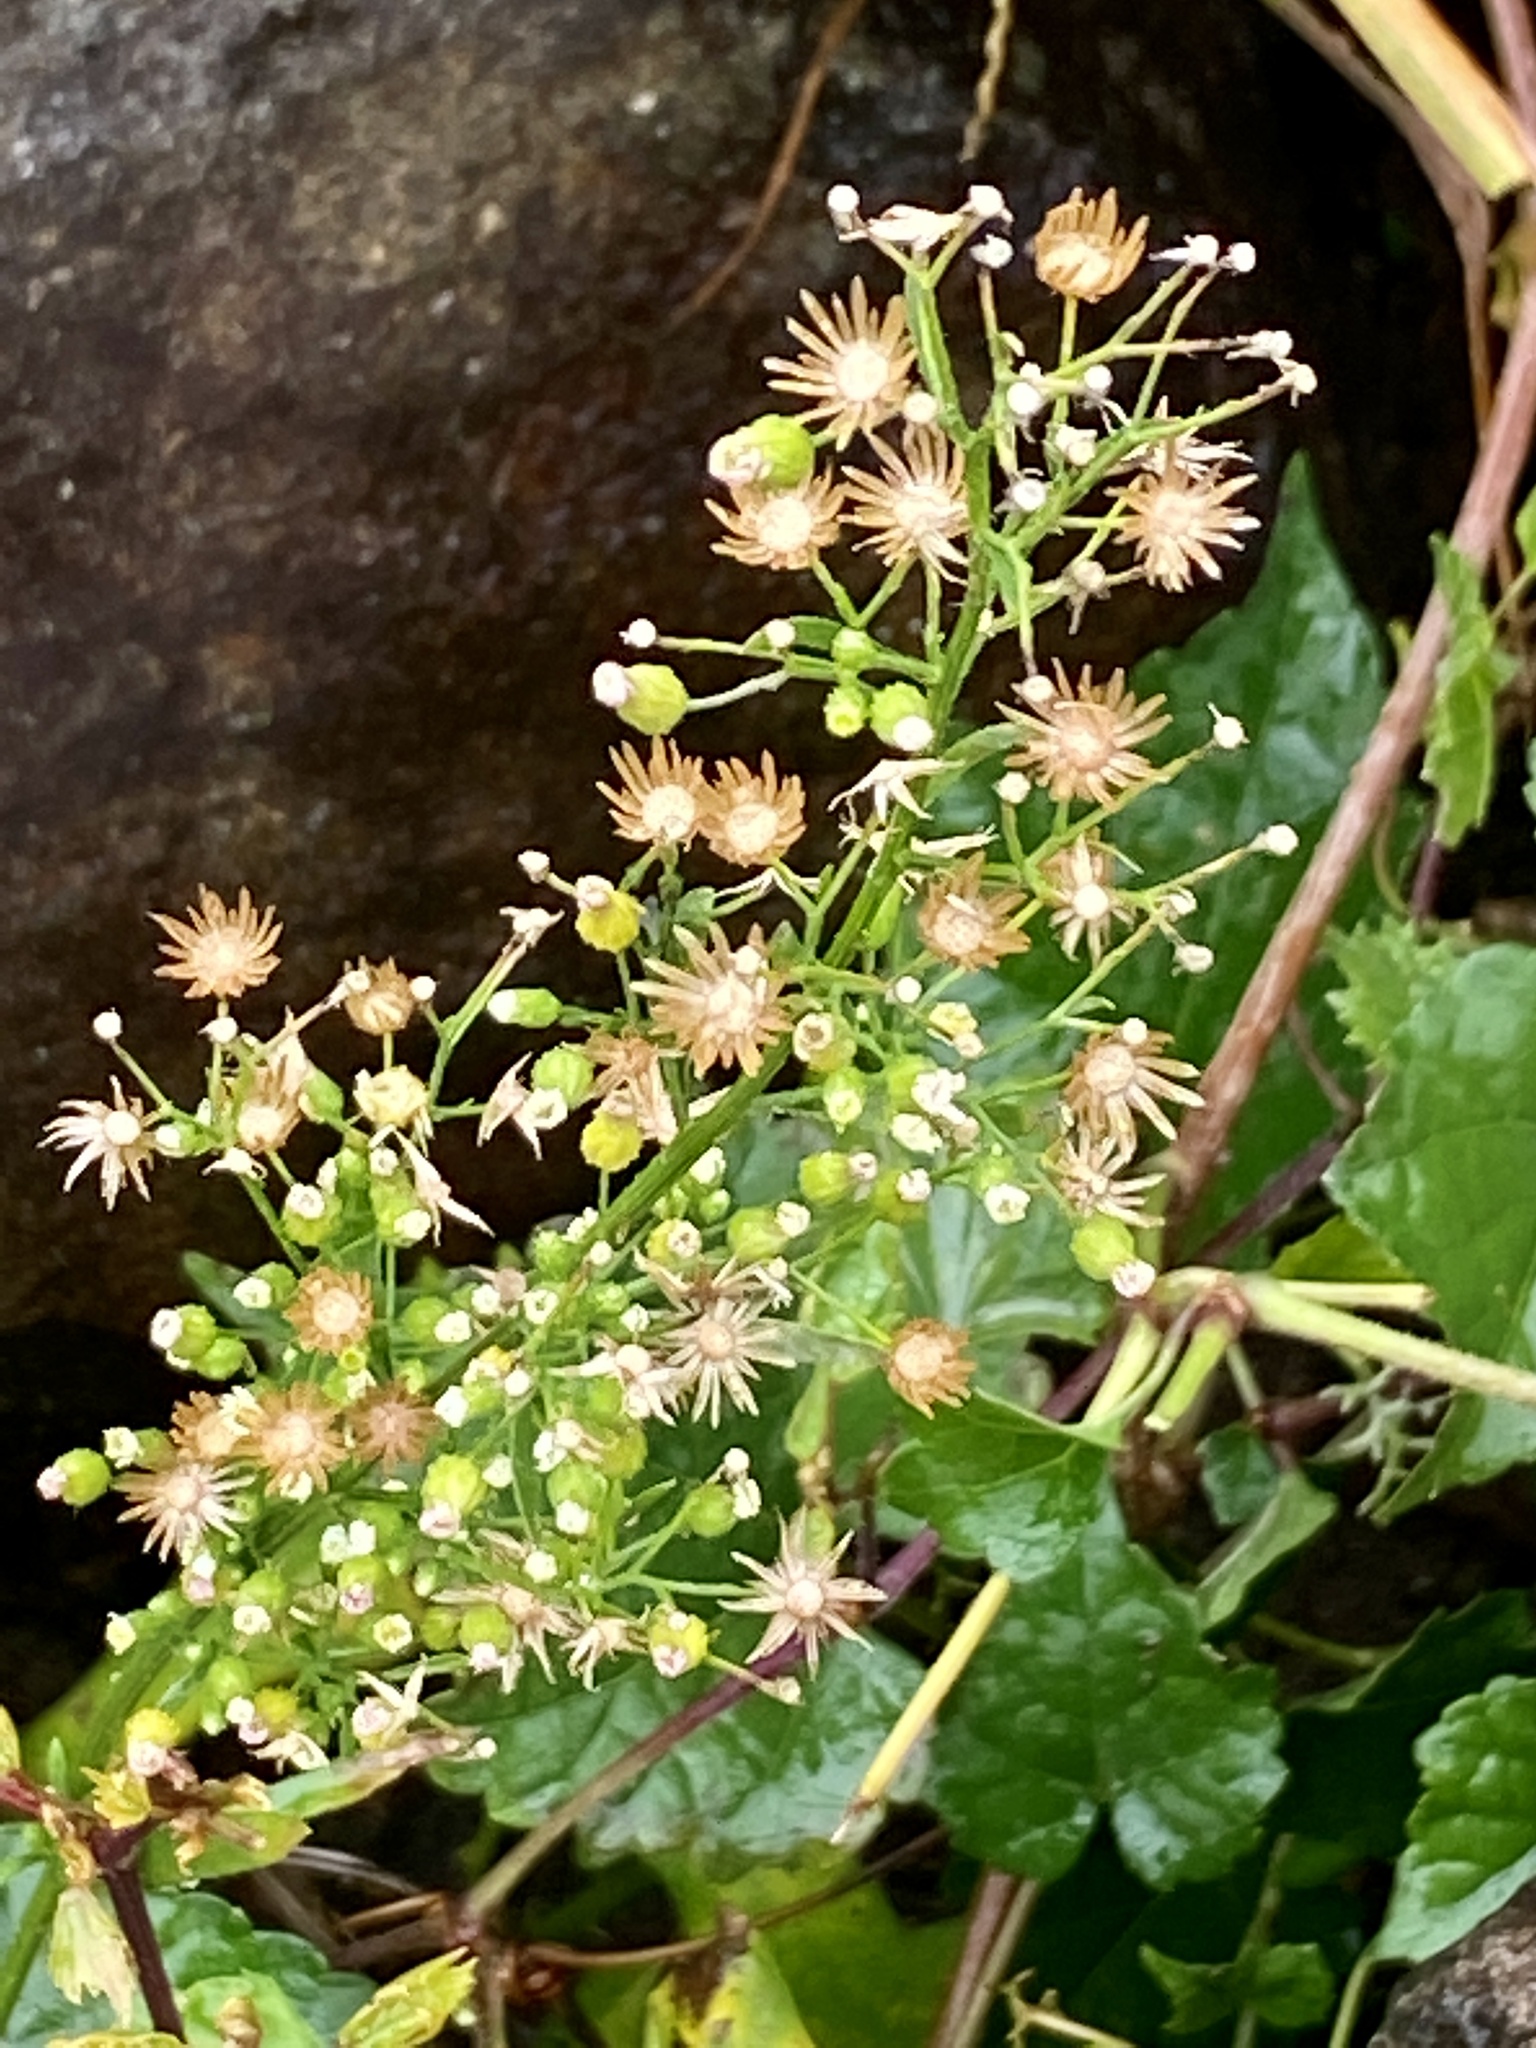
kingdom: Plantae
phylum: Tracheophyta
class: Magnoliopsida
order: Asterales
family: Asteraceae
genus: Erigeron
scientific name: Erigeron canadensis
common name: Canadian fleabane
